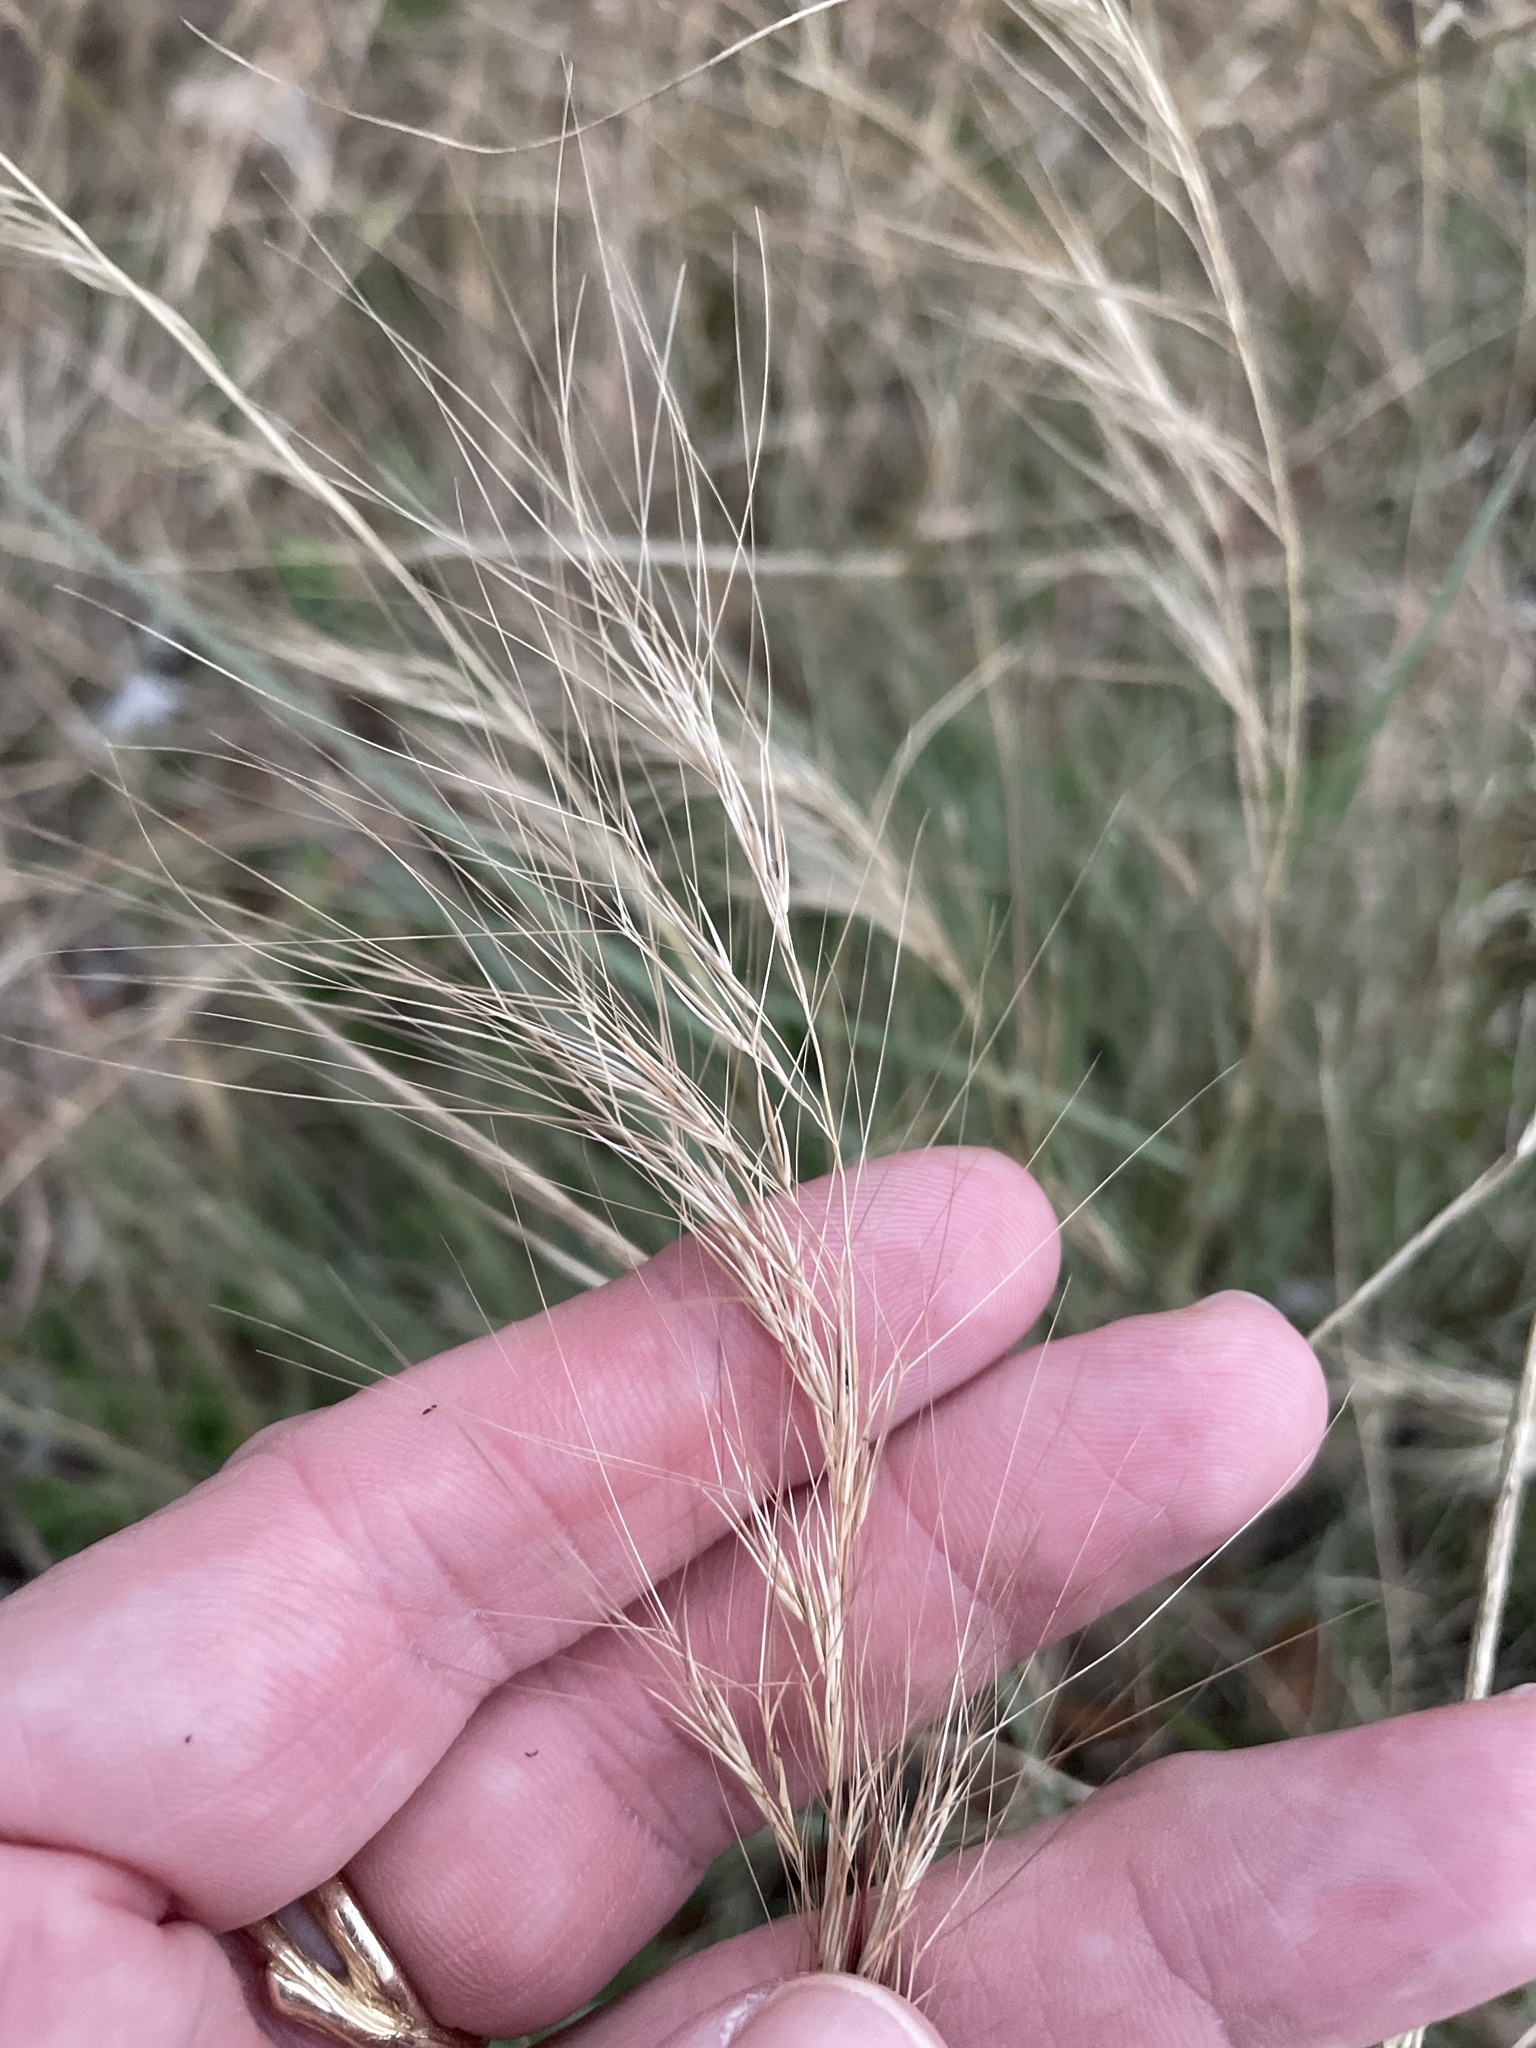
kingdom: Plantae
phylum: Tracheophyta
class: Liliopsida
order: Poales
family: Poaceae
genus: Aristida
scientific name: Aristida purpurea
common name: Purple threeawn
